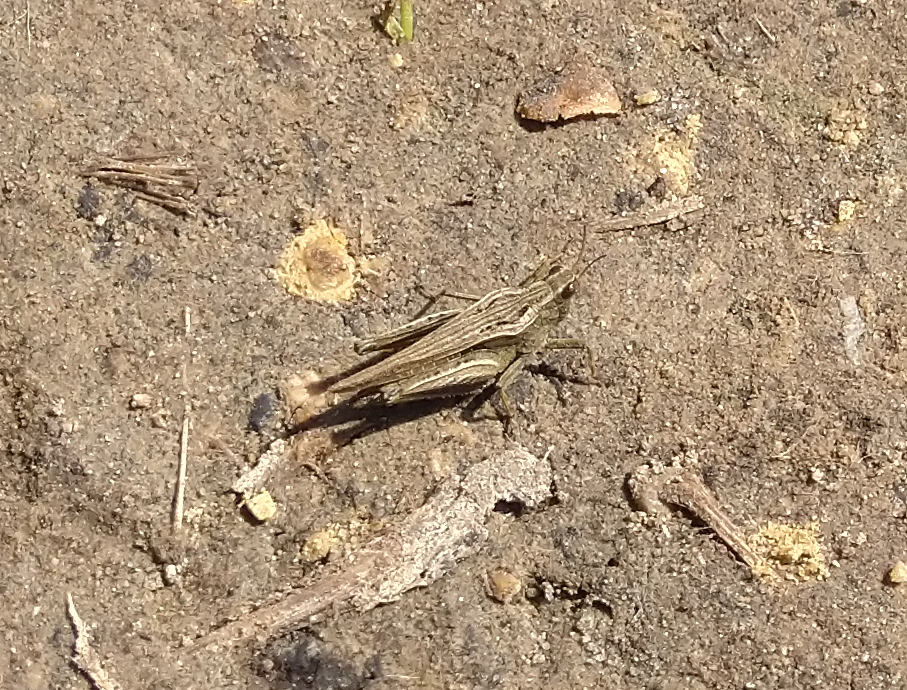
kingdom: Animalia
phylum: Arthropoda
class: Insecta
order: Orthoptera
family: Tetrigidae
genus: Tetrix
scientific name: Tetrix subulata
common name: Slender ground-hopper
